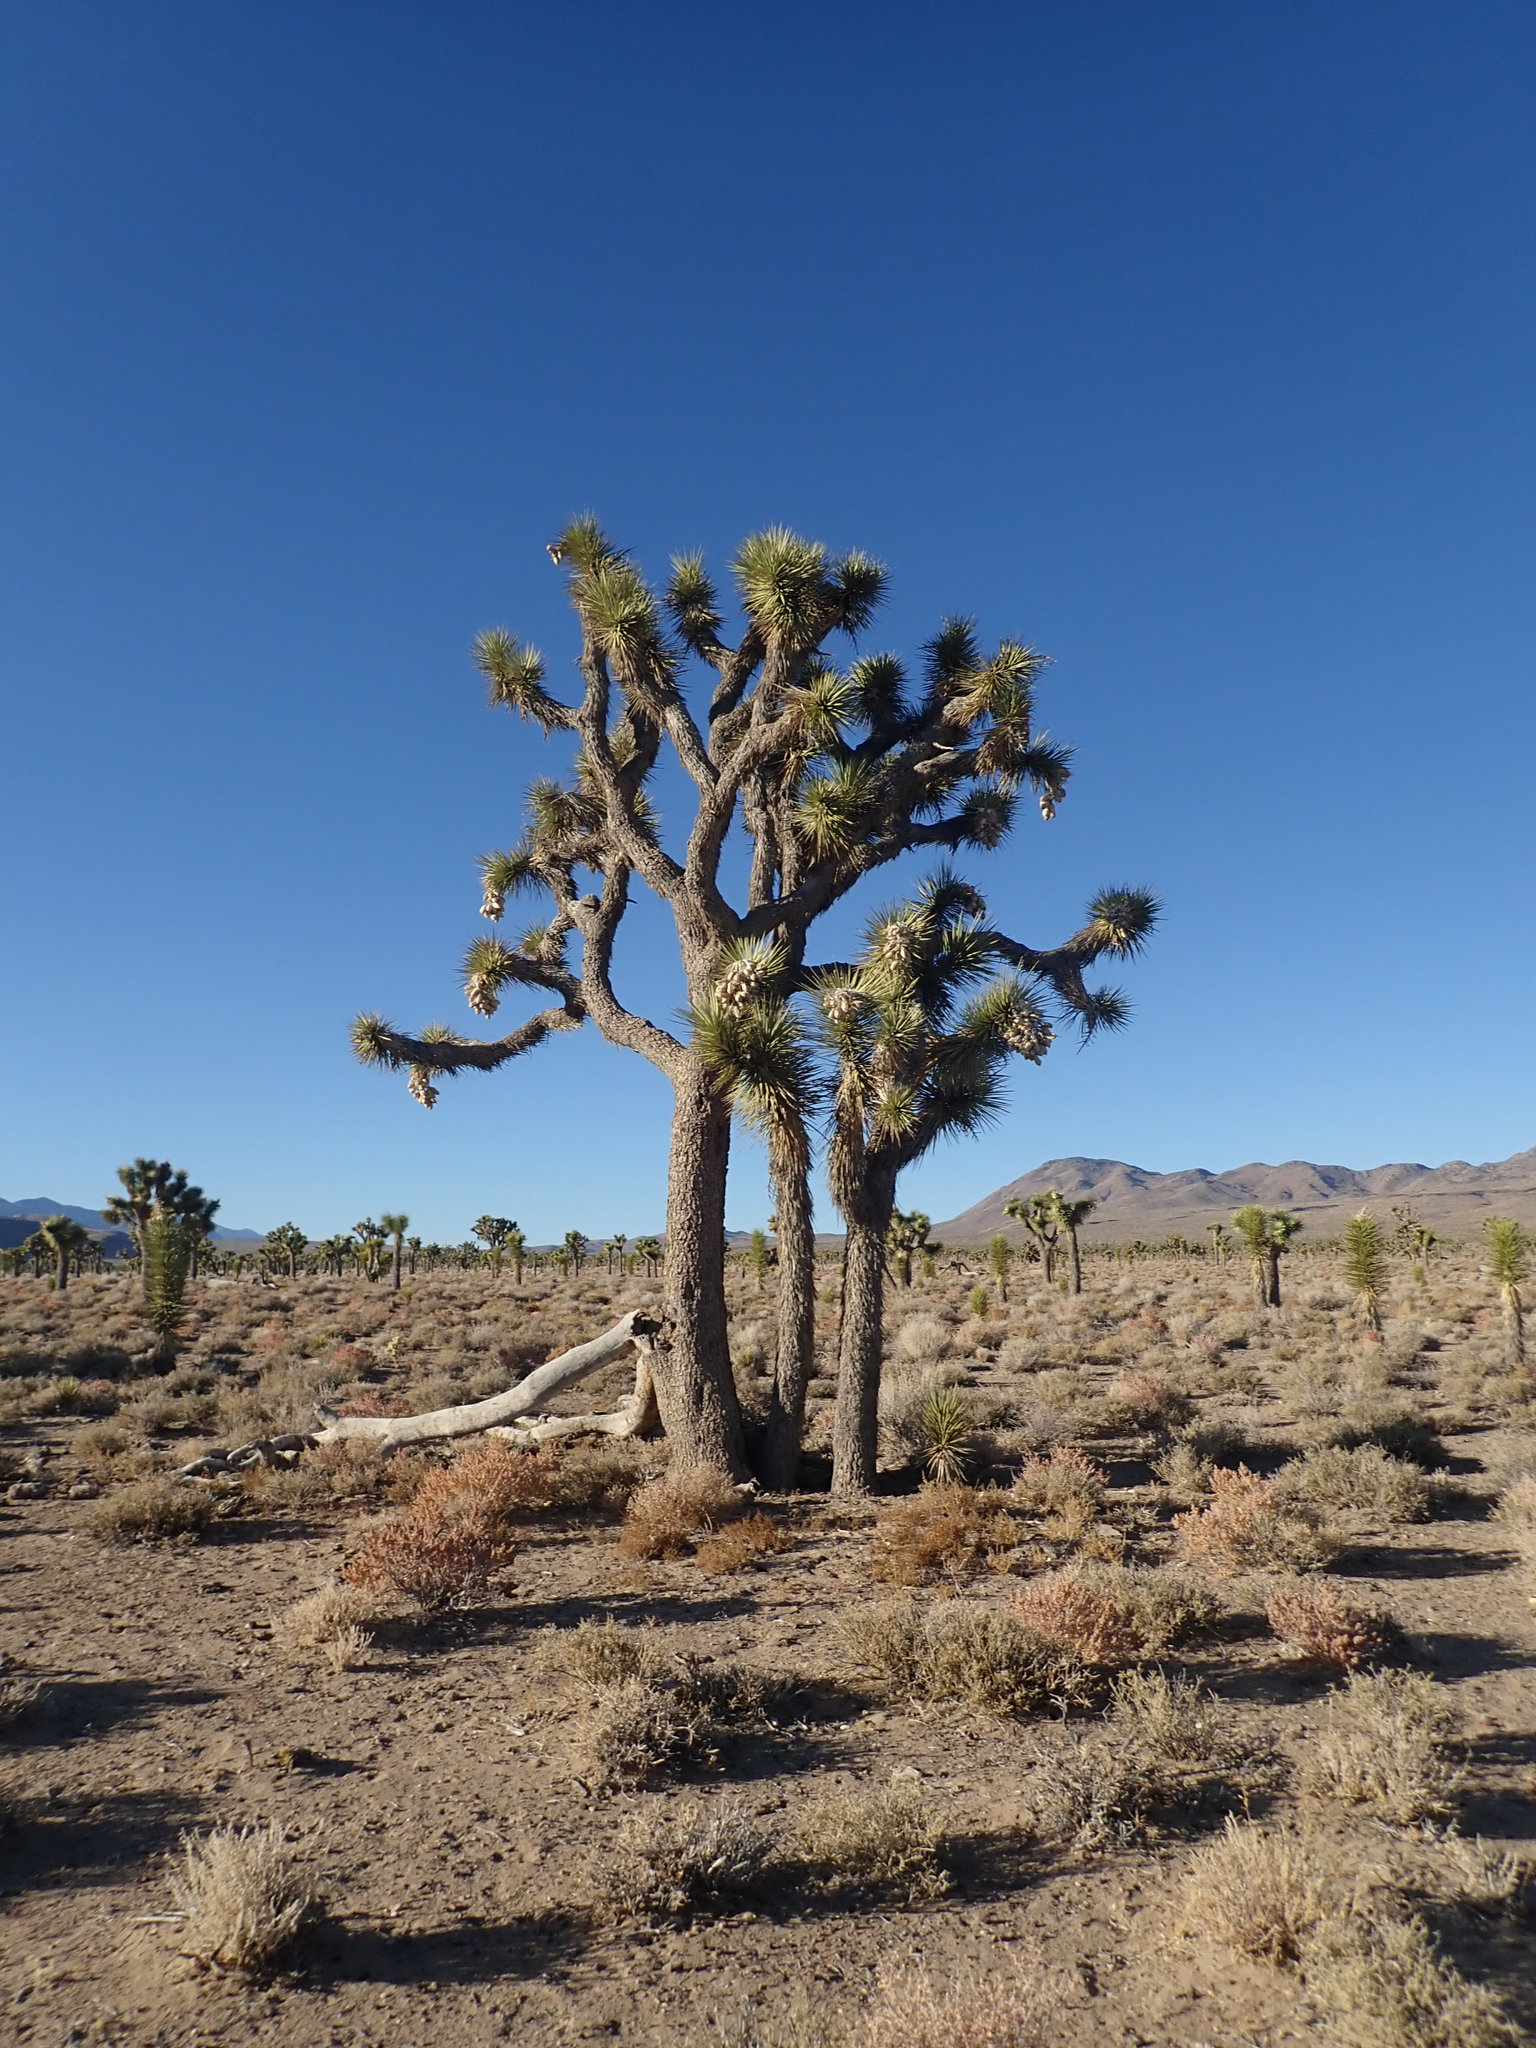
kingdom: Plantae
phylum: Tracheophyta
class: Liliopsida
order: Asparagales
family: Asparagaceae
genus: Yucca
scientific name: Yucca brevifolia
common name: Joshua tree
